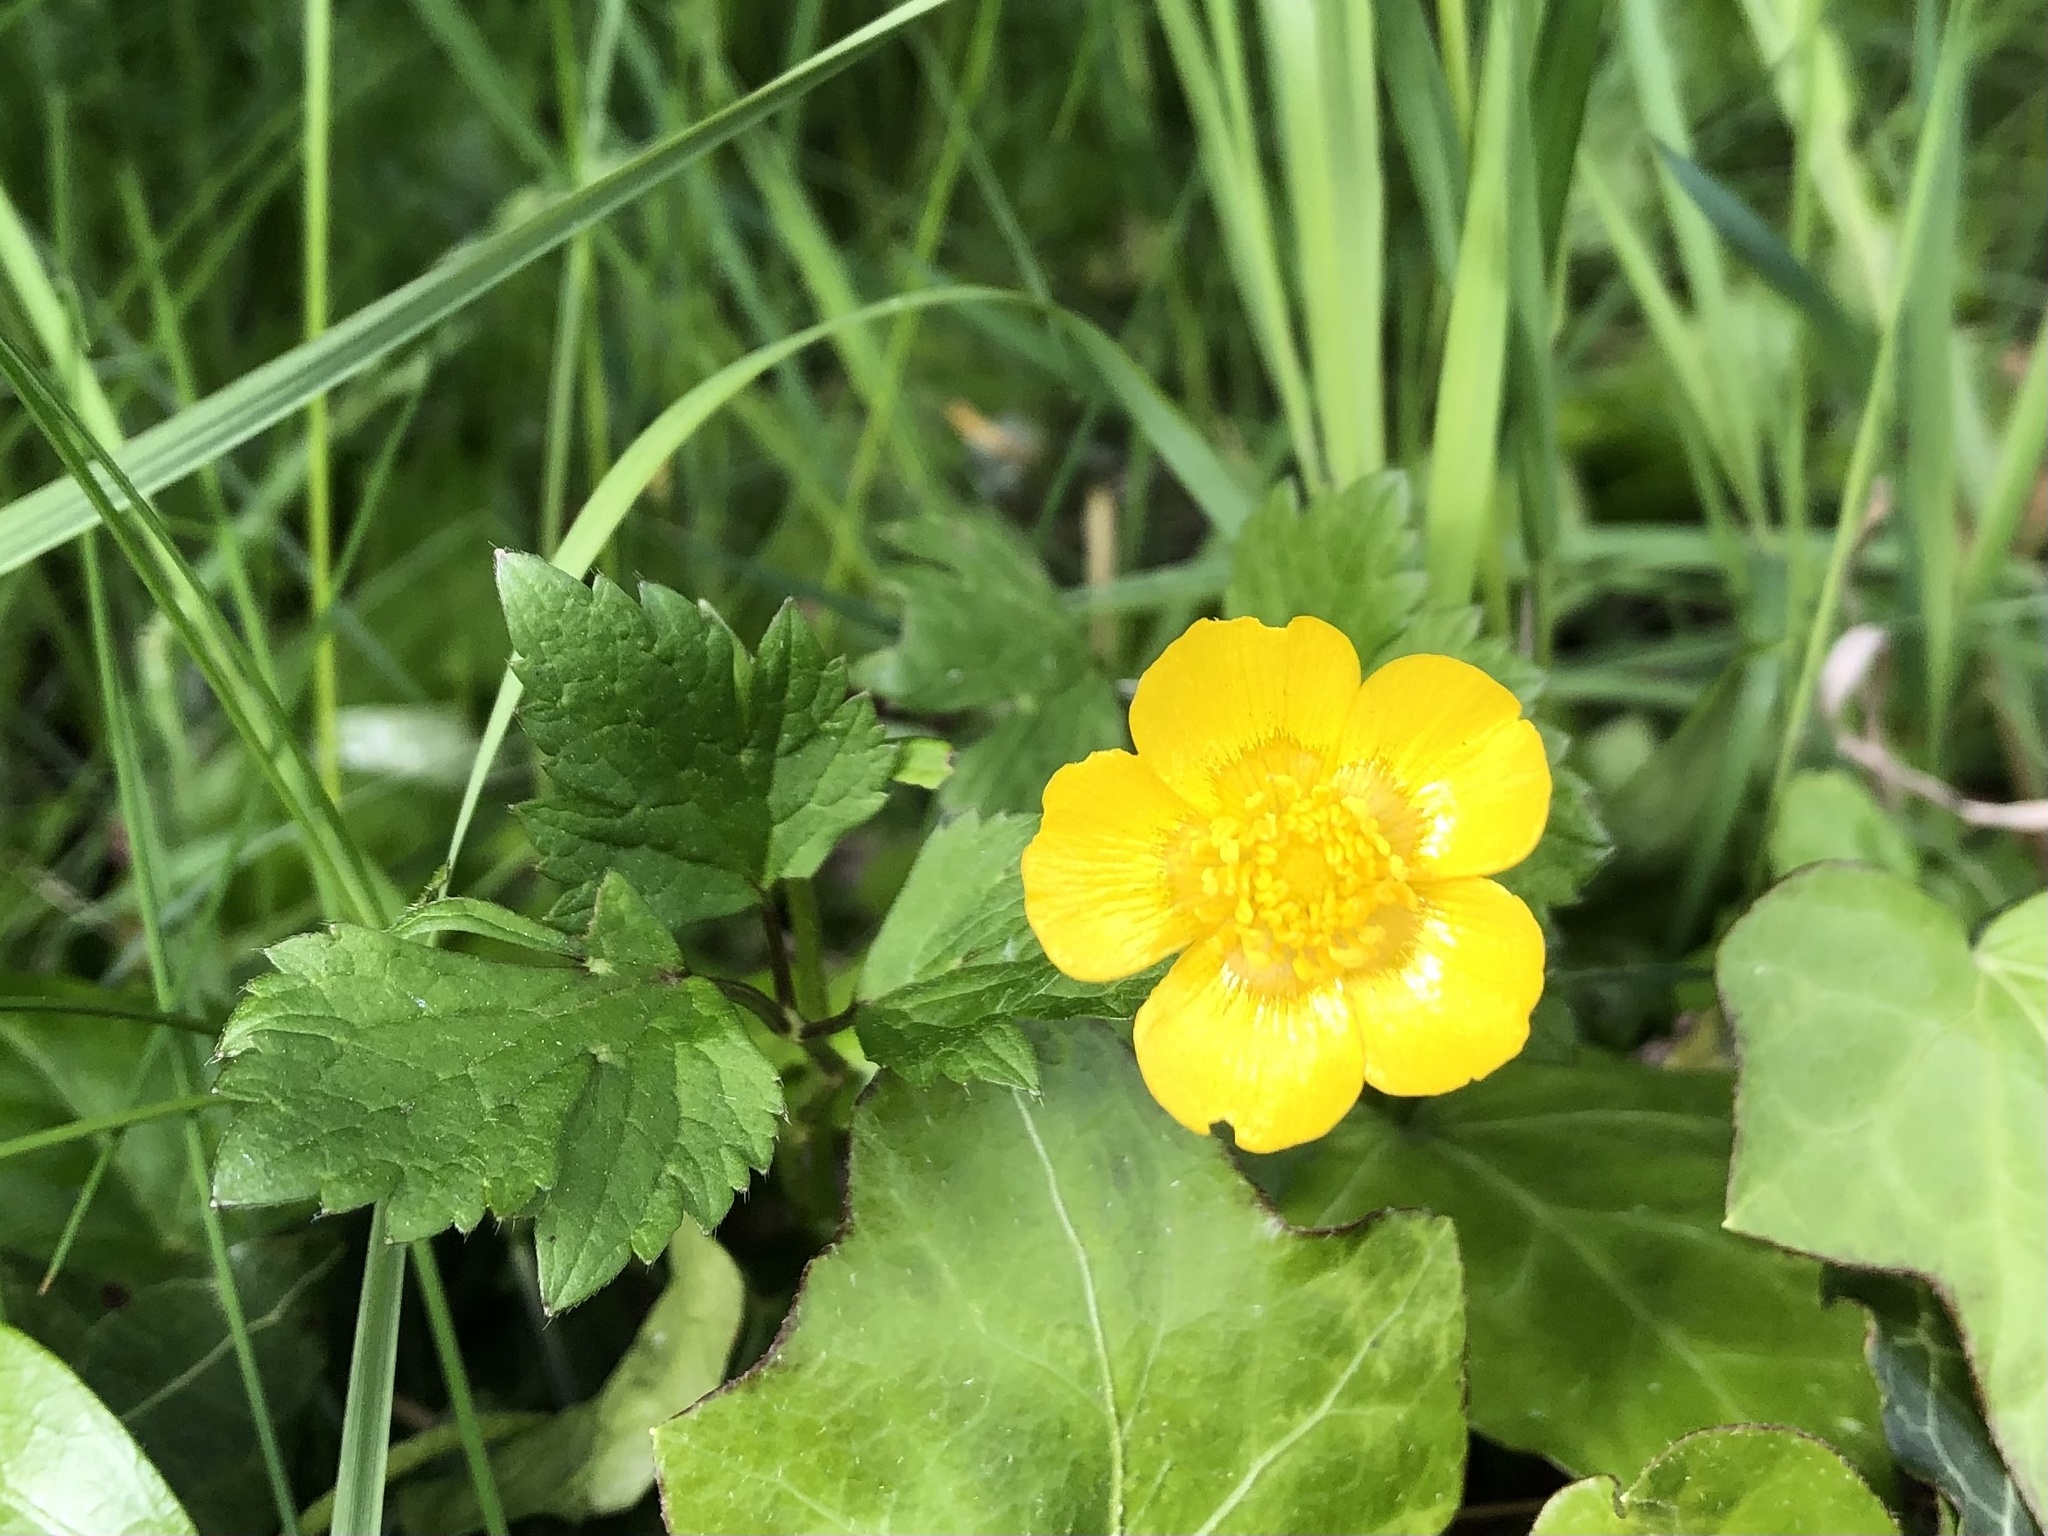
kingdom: Plantae
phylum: Tracheophyta
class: Magnoliopsida
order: Ranunculales
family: Ranunculaceae
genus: Ranunculus
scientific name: Ranunculus repens
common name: Creeping buttercup
